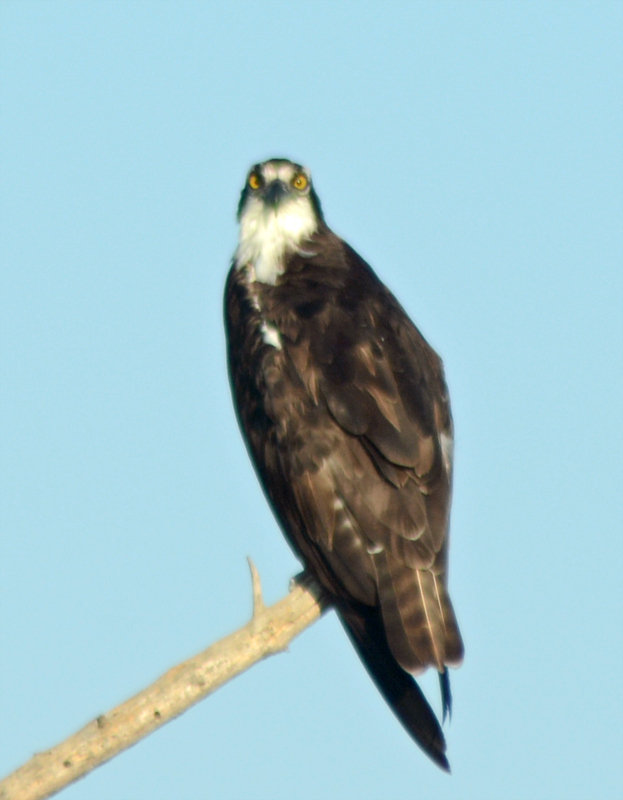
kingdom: Animalia
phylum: Chordata
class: Aves
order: Accipitriformes
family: Pandionidae
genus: Pandion
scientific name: Pandion haliaetus
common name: Osprey
